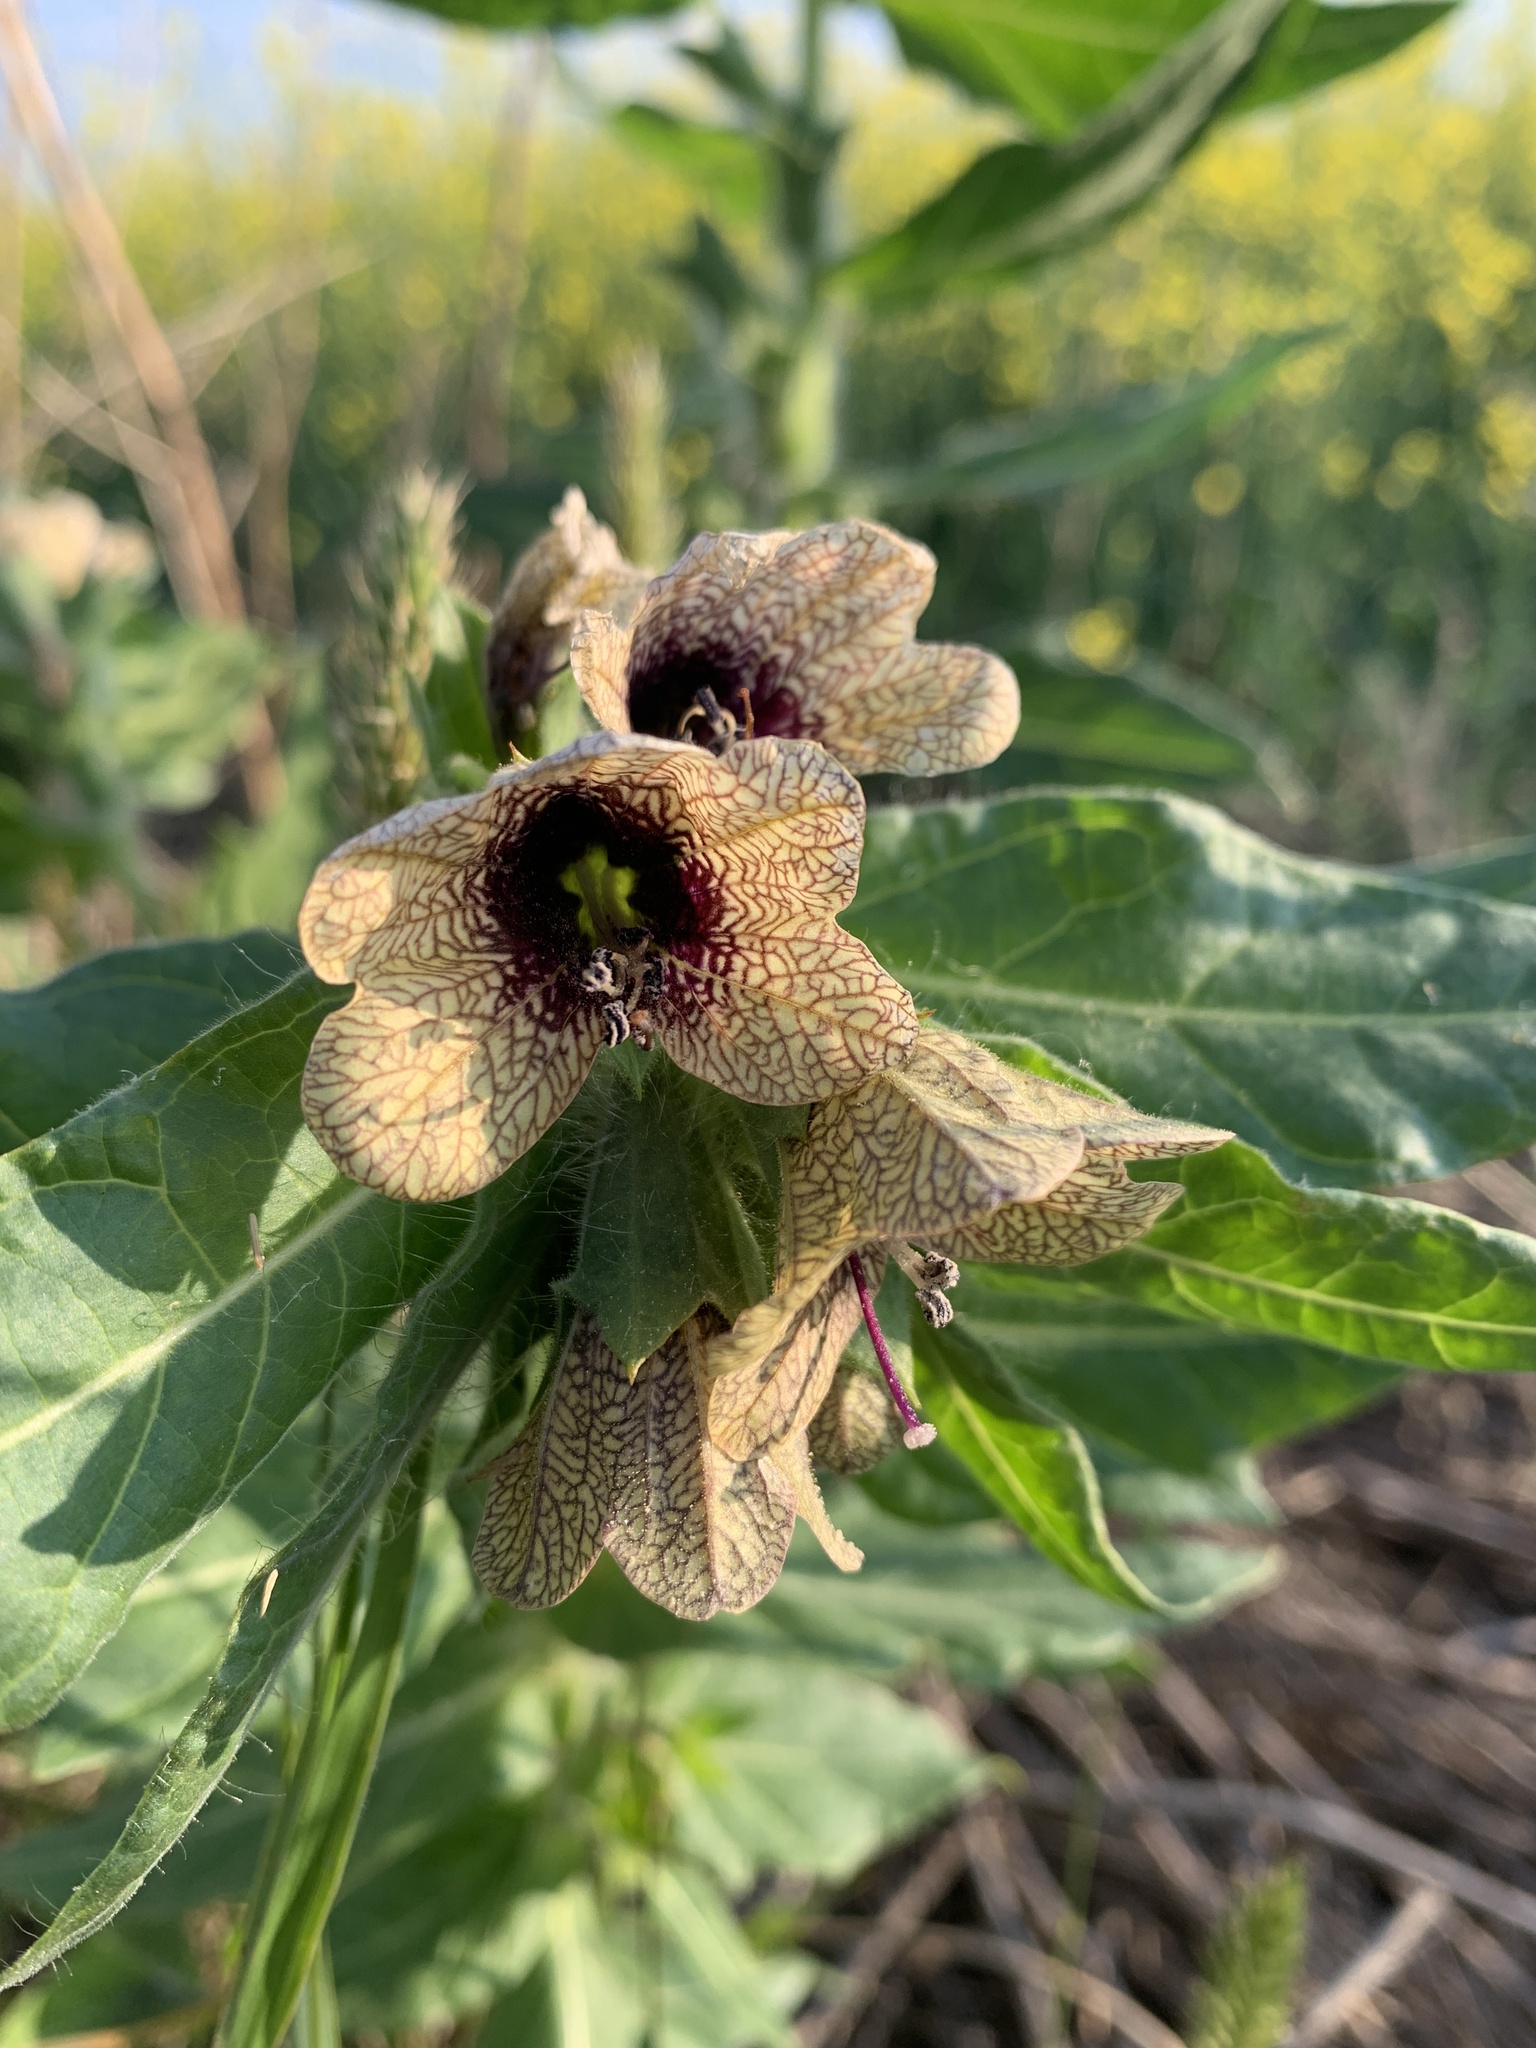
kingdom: Plantae
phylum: Tracheophyta
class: Magnoliopsida
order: Solanales
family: Solanaceae
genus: Hyoscyamus
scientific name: Hyoscyamus niger
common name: Henbane
